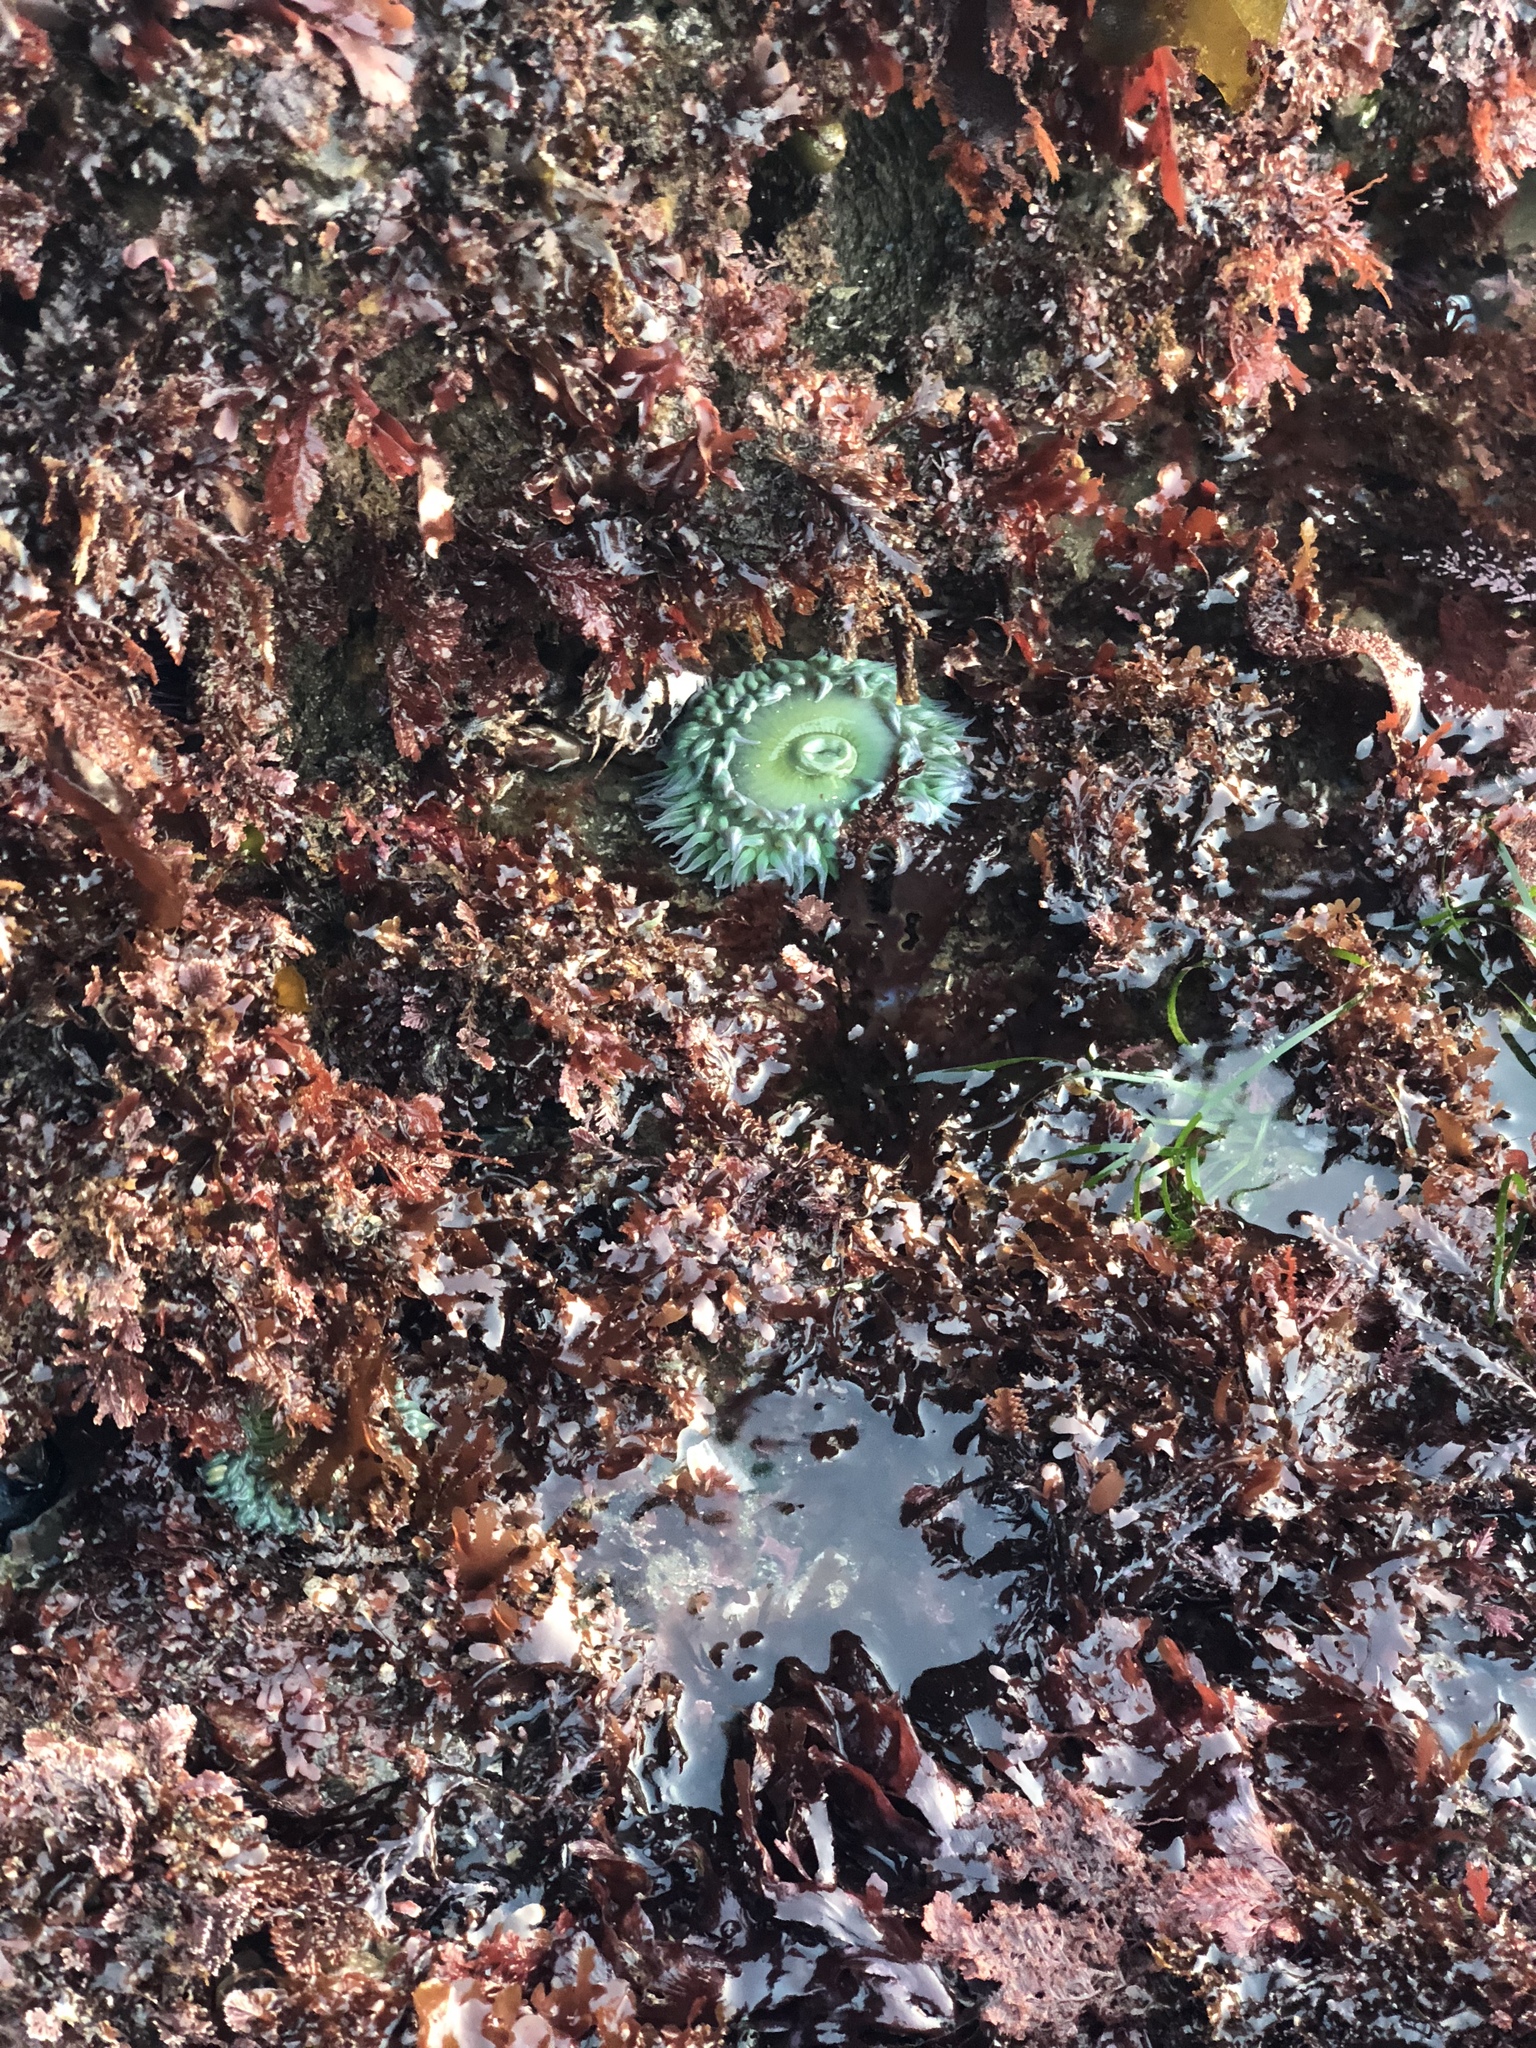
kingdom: Animalia
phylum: Cnidaria
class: Anthozoa
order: Actiniaria
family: Actiniidae
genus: Anthopleura
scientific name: Anthopleura xanthogrammica
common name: Giant green anemone
